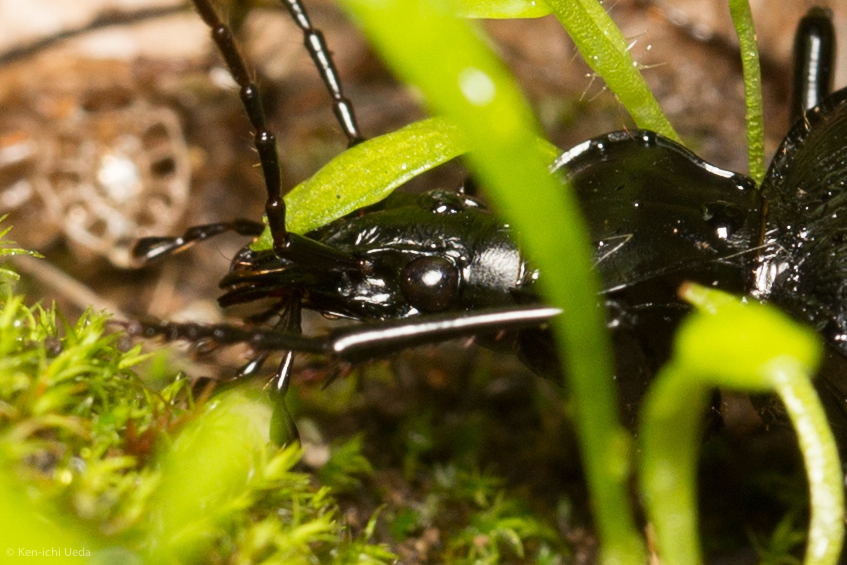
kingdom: Animalia
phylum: Arthropoda
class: Insecta
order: Coleoptera
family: Carabidae
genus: Scaphinotus
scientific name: Scaphinotus interruptus
